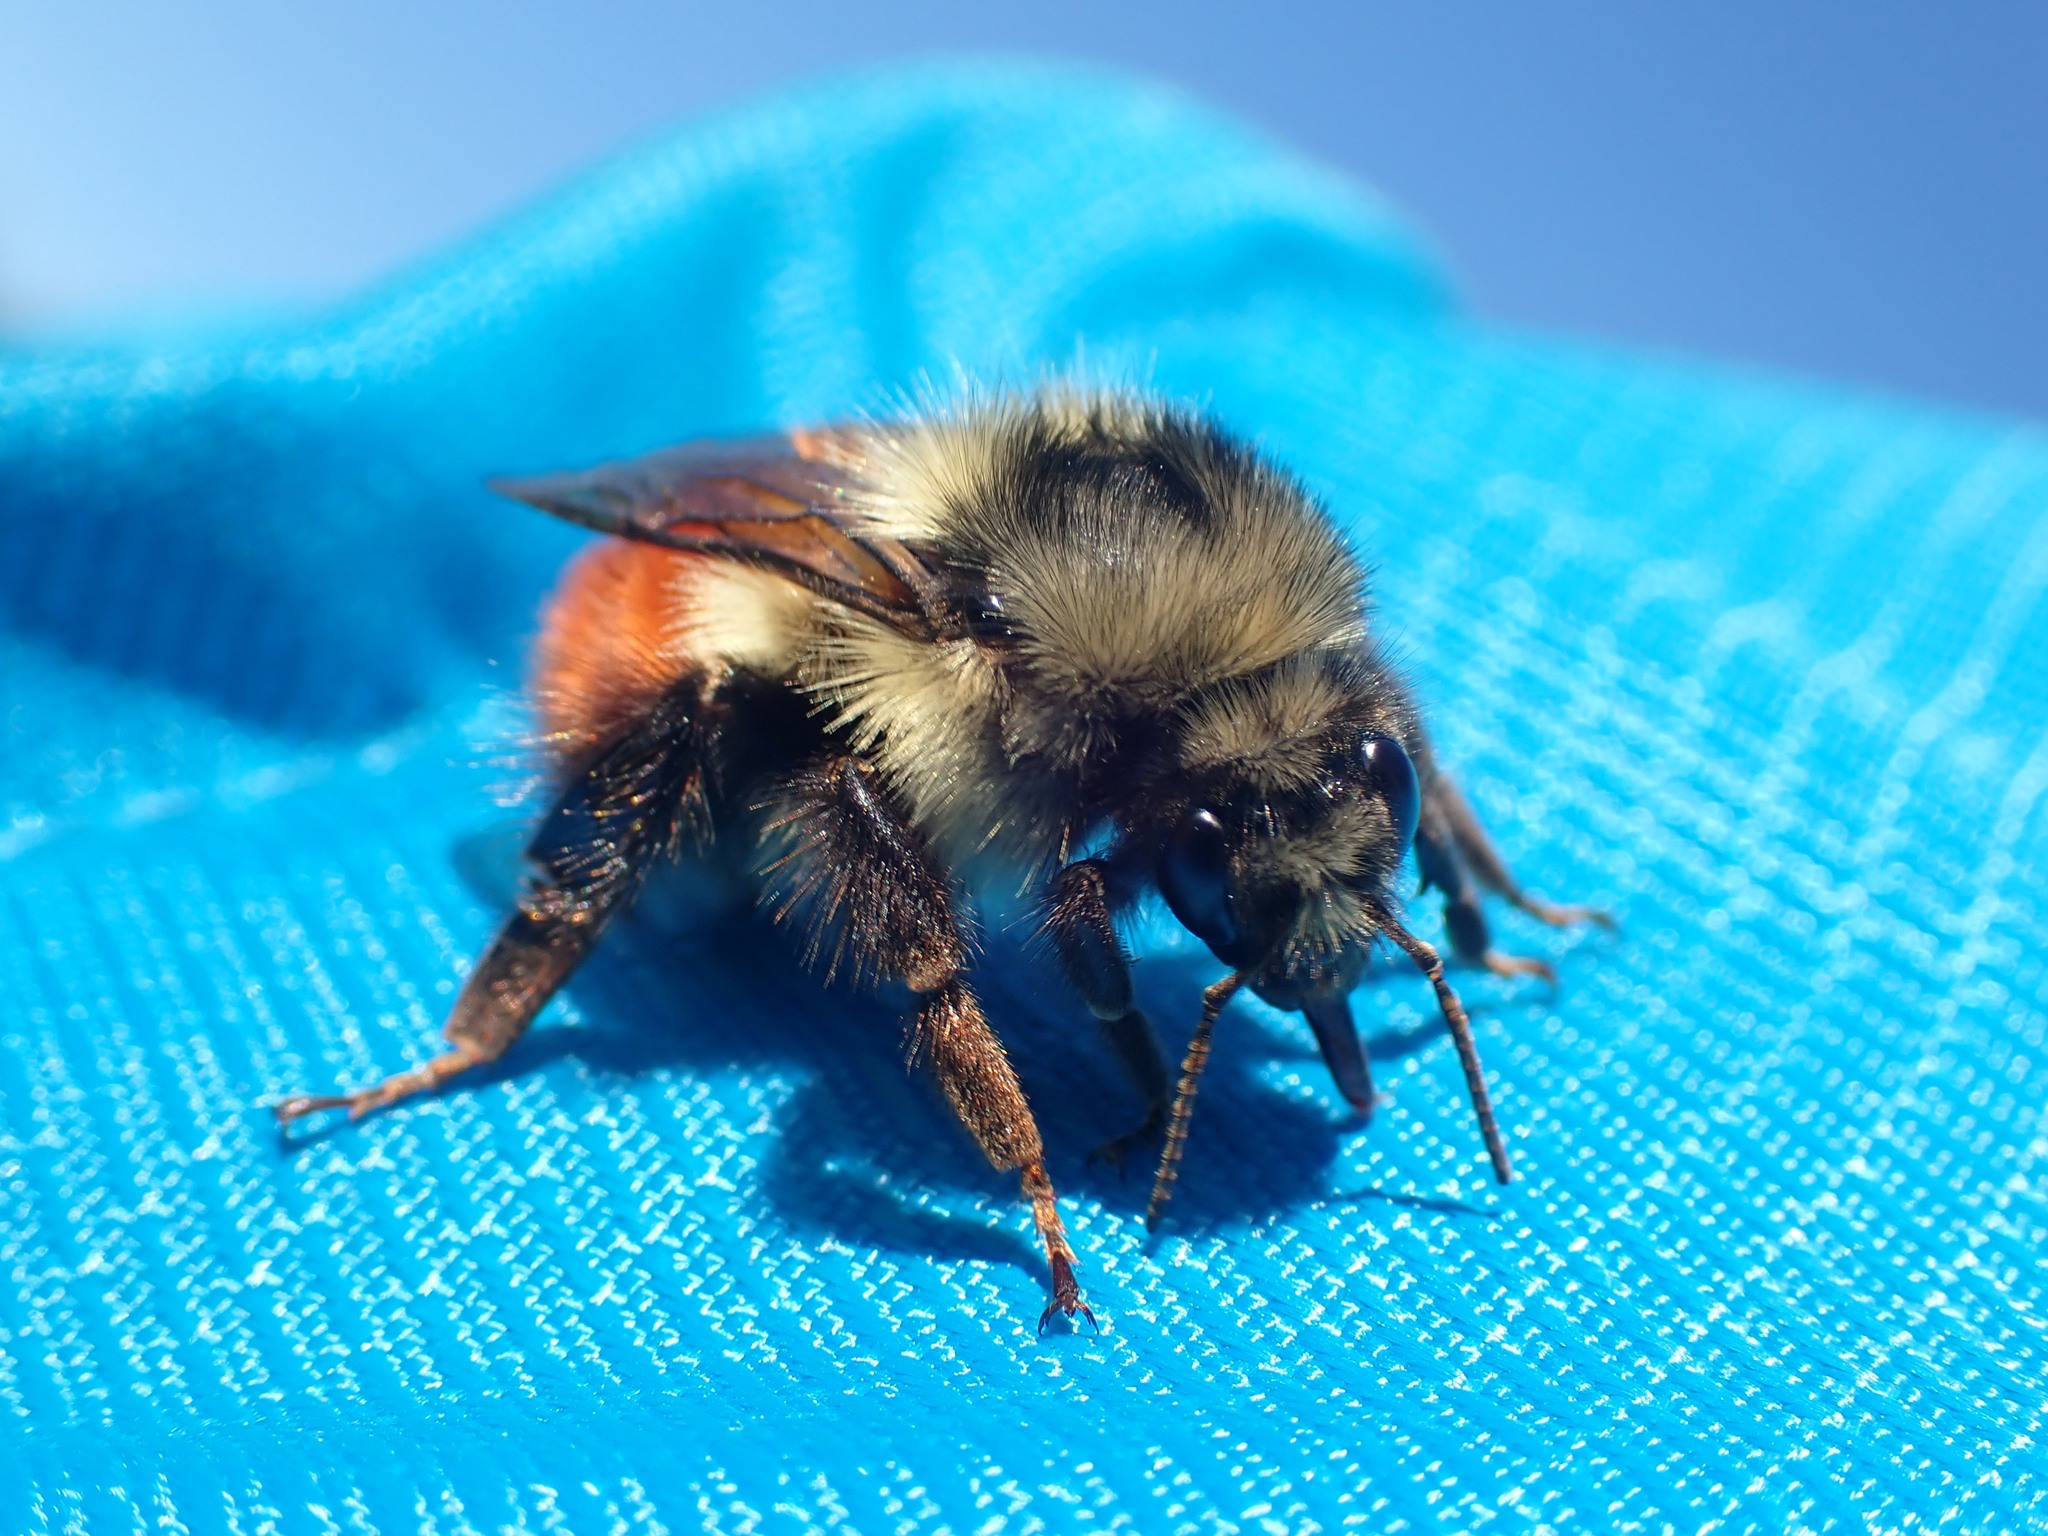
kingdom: Animalia
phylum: Arthropoda
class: Insecta
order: Hymenoptera
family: Apidae
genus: Bombus
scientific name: Bombus melanopygus
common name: Black tail bumble bee
